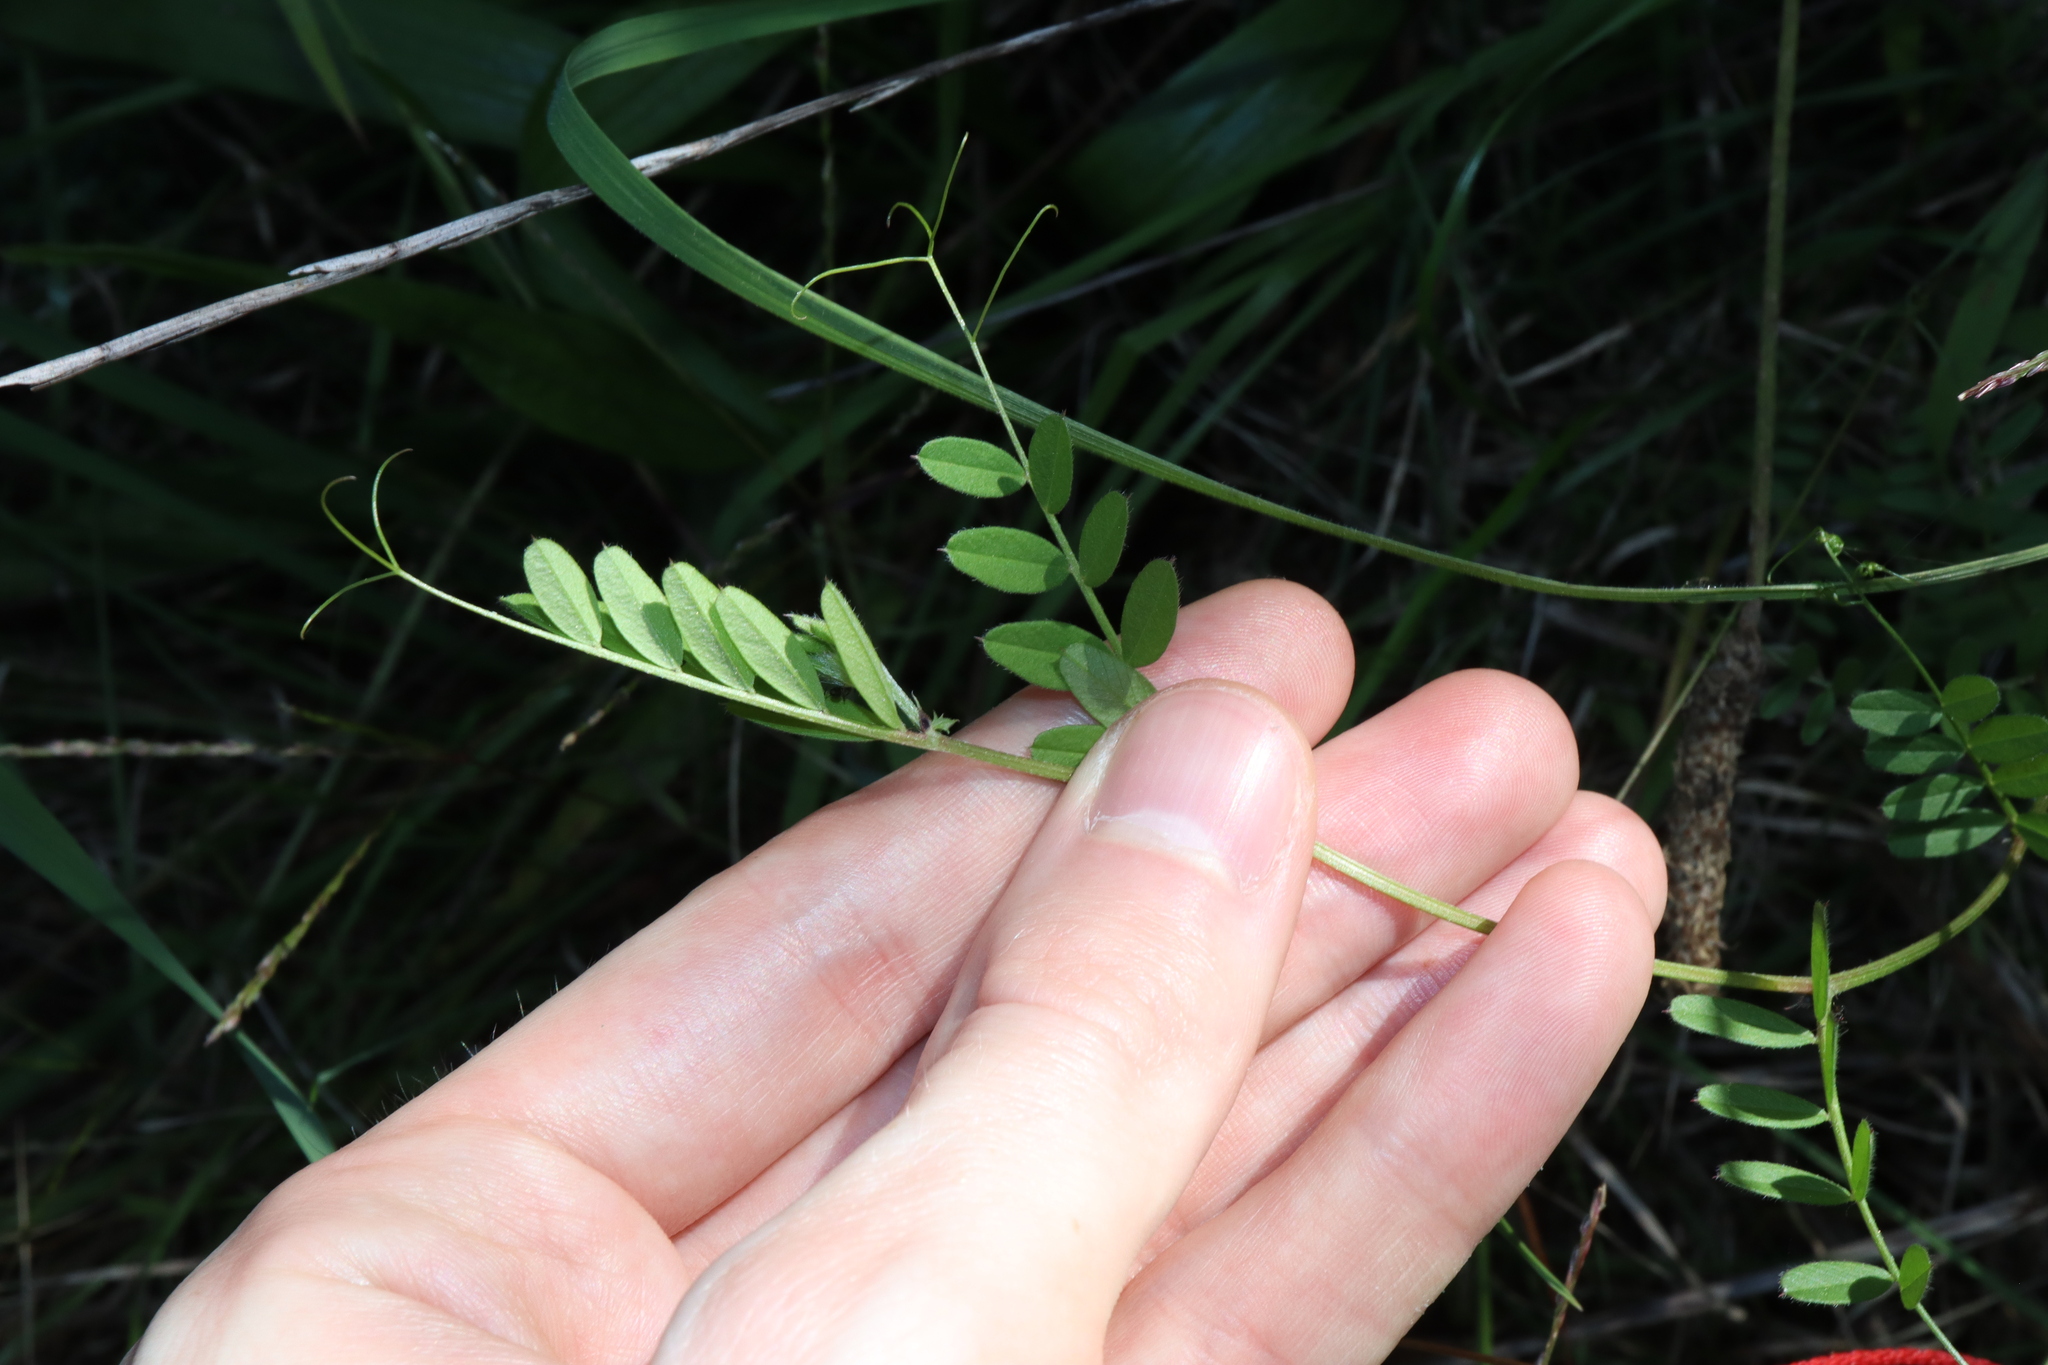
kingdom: Plantae
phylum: Tracheophyta
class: Magnoliopsida
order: Fabales
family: Fabaceae
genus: Vicia
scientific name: Vicia sativa
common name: Garden vetch
